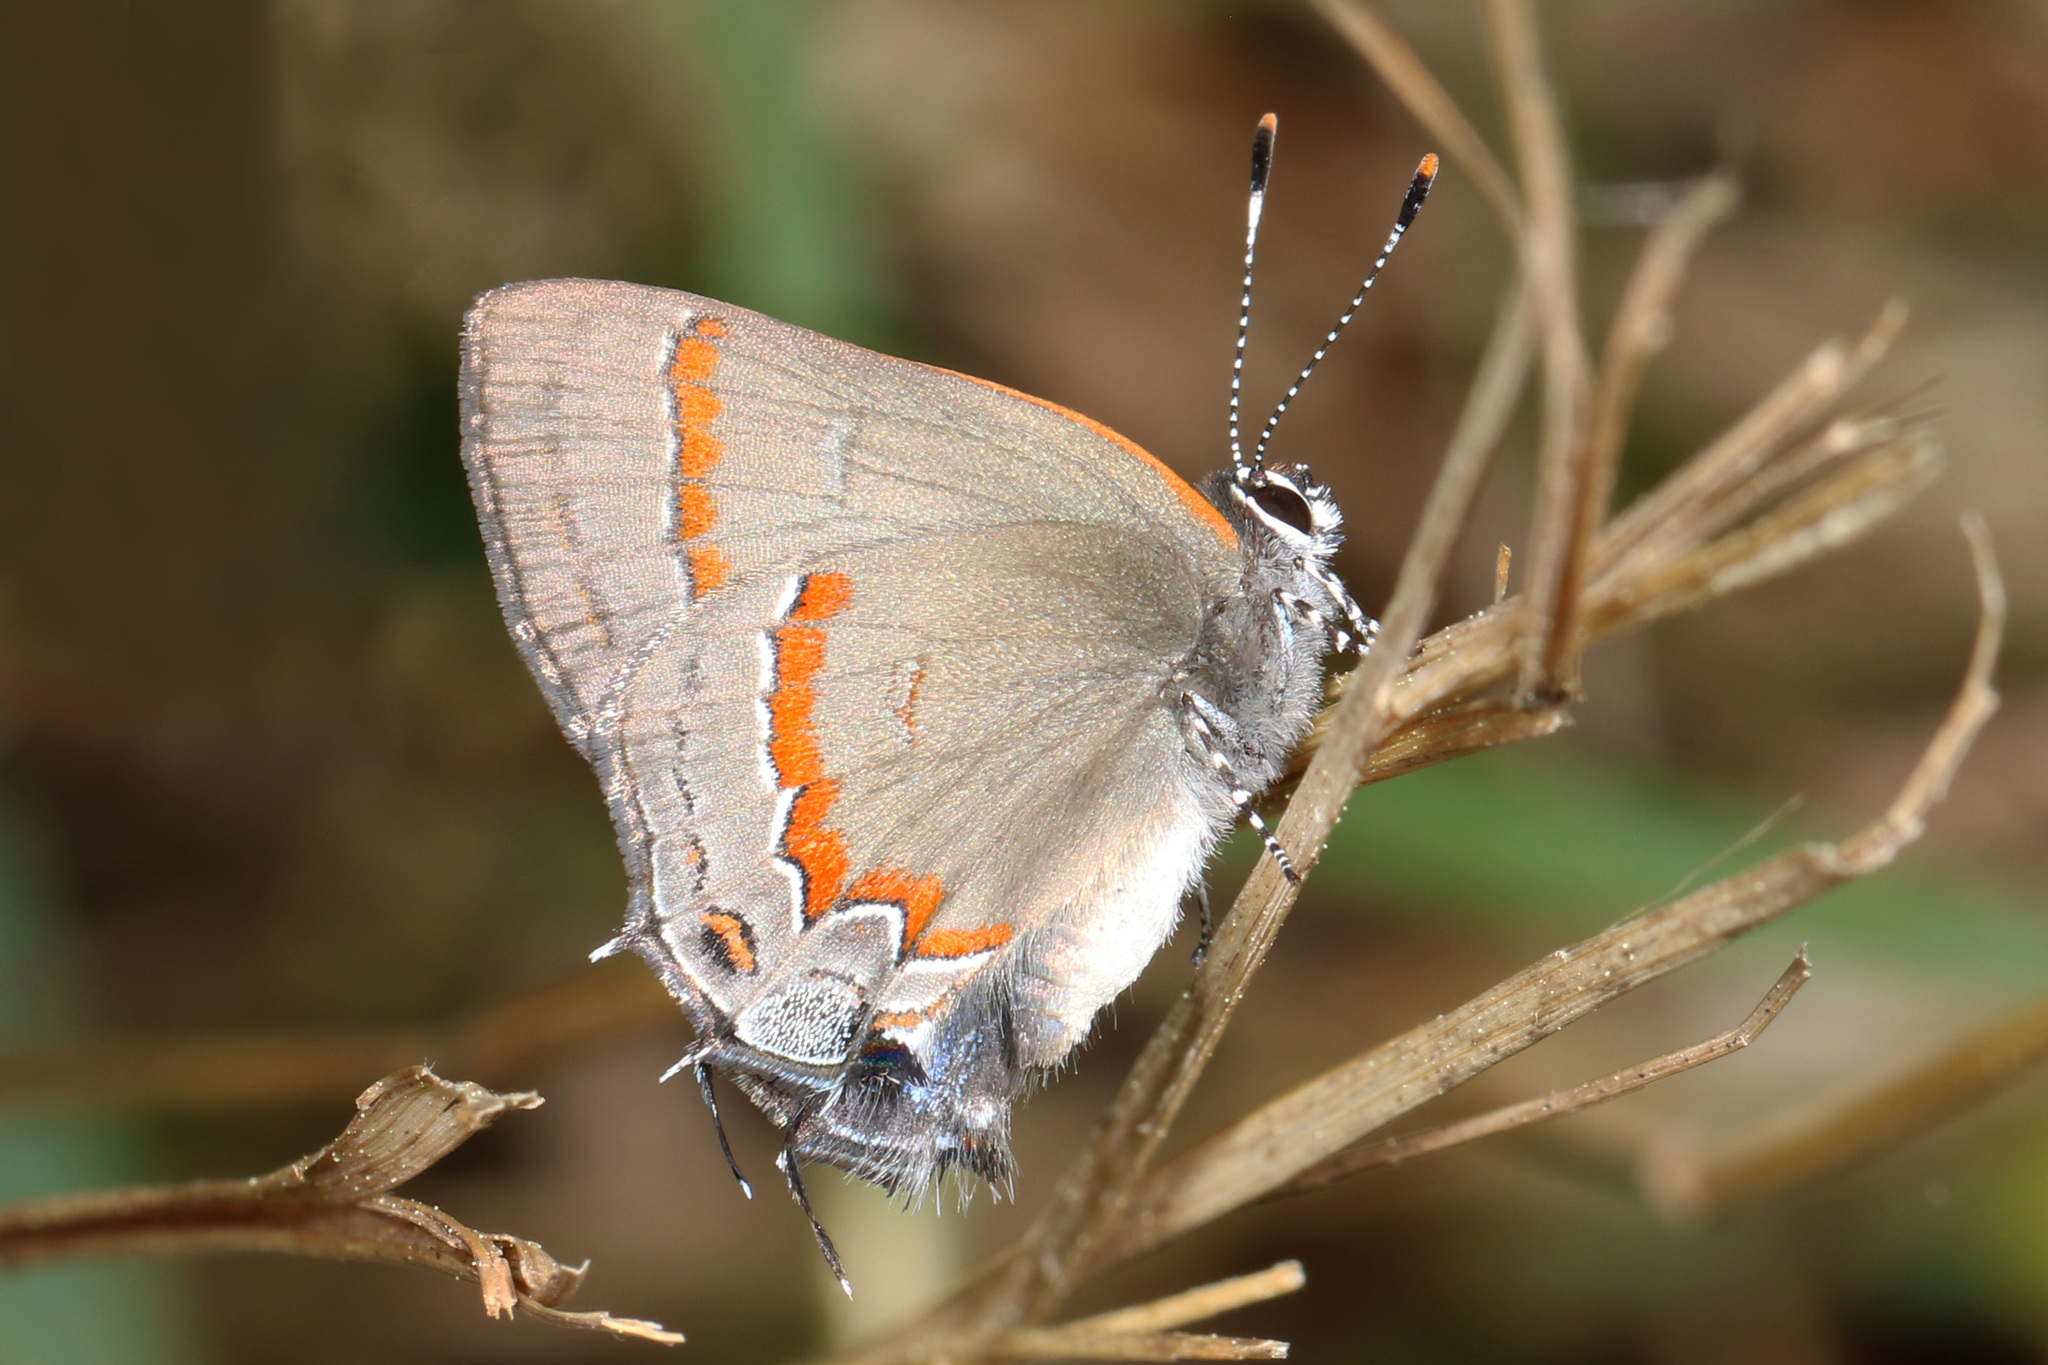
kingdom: Animalia
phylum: Arthropoda
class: Insecta
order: Lepidoptera
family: Lycaenidae
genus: Calycopis
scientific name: Calycopis cecrops
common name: Red-banded hairstreak
